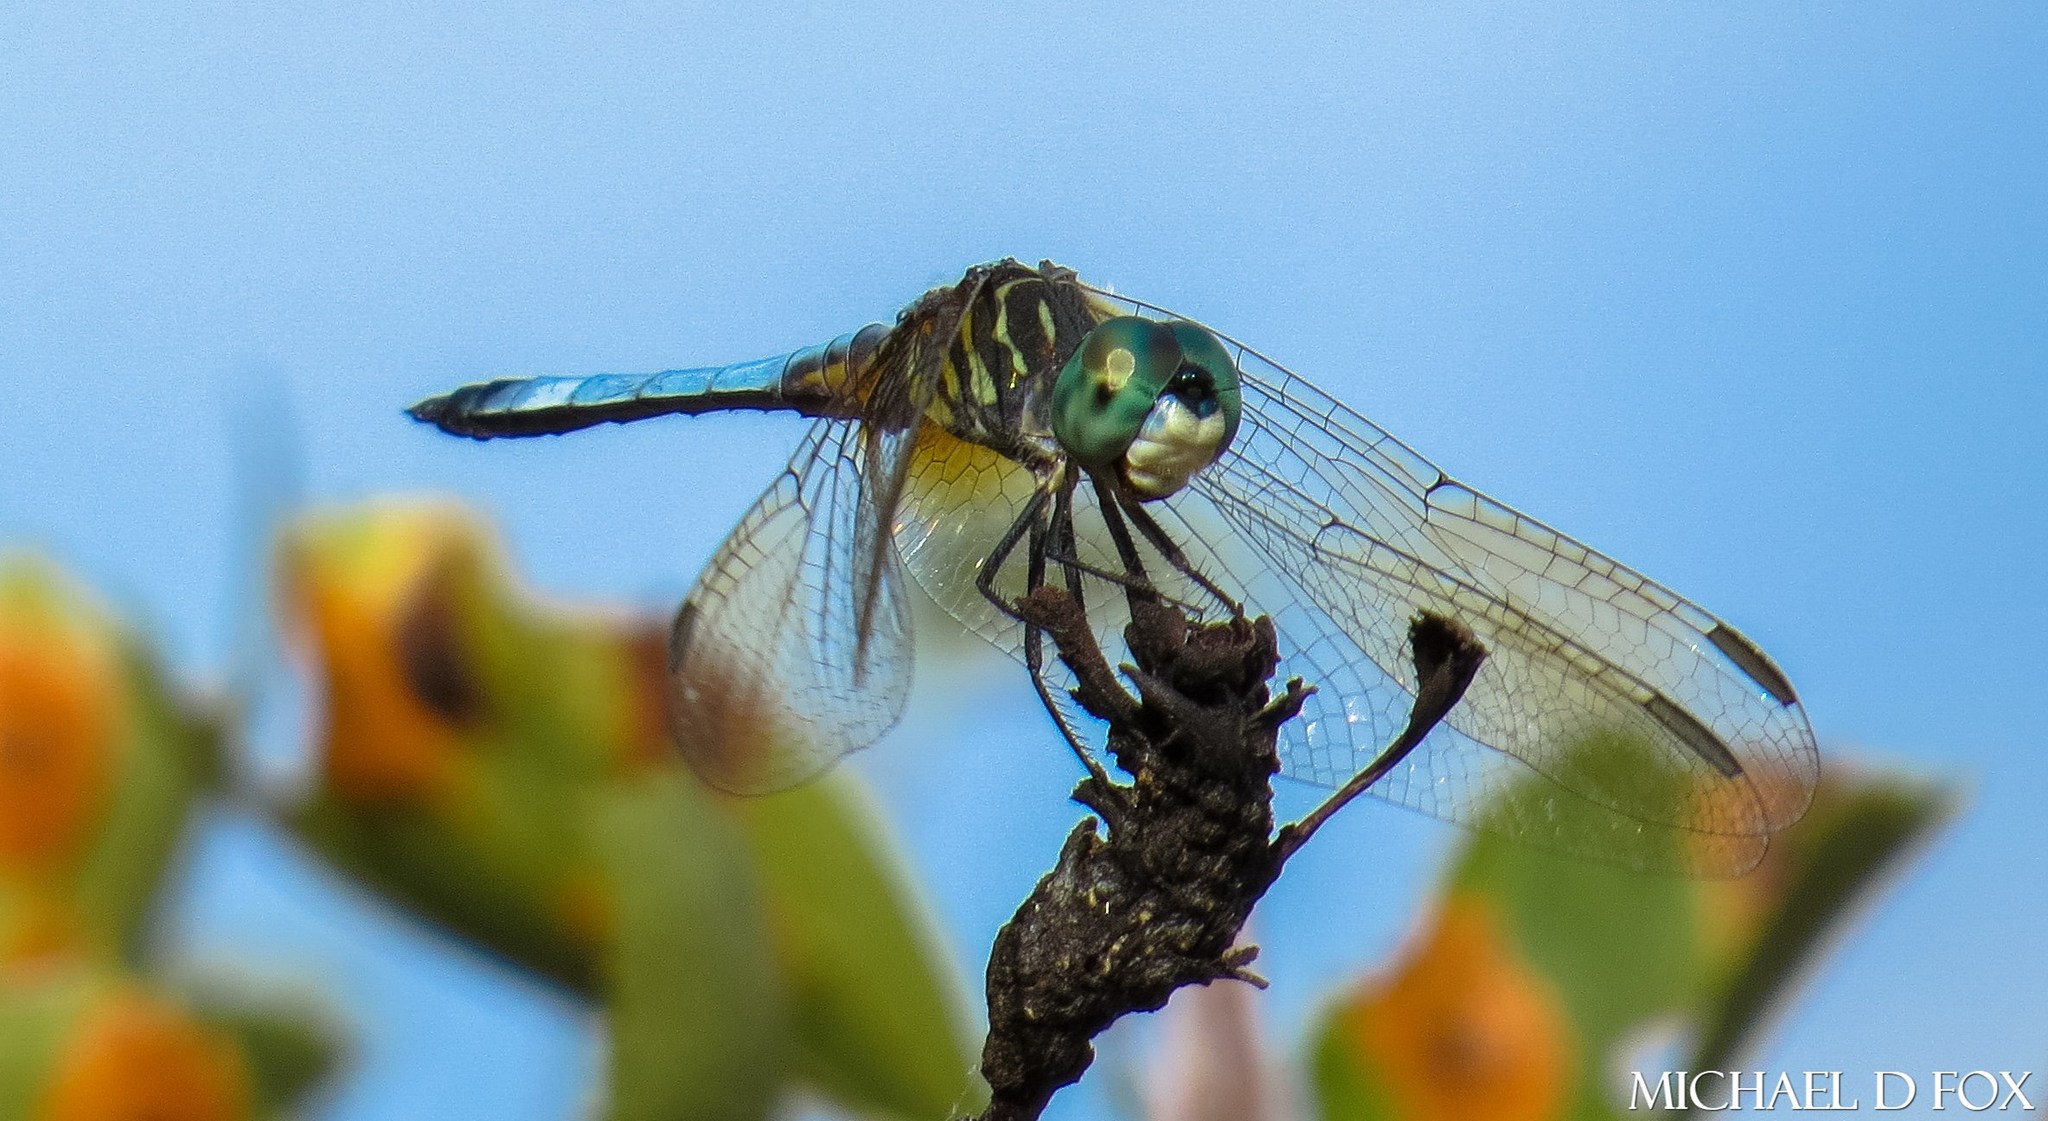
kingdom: Animalia
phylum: Arthropoda
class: Insecta
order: Odonata
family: Libellulidae
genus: Pachydiplax
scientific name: Pachydiplax longipennis
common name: Blue dasher
